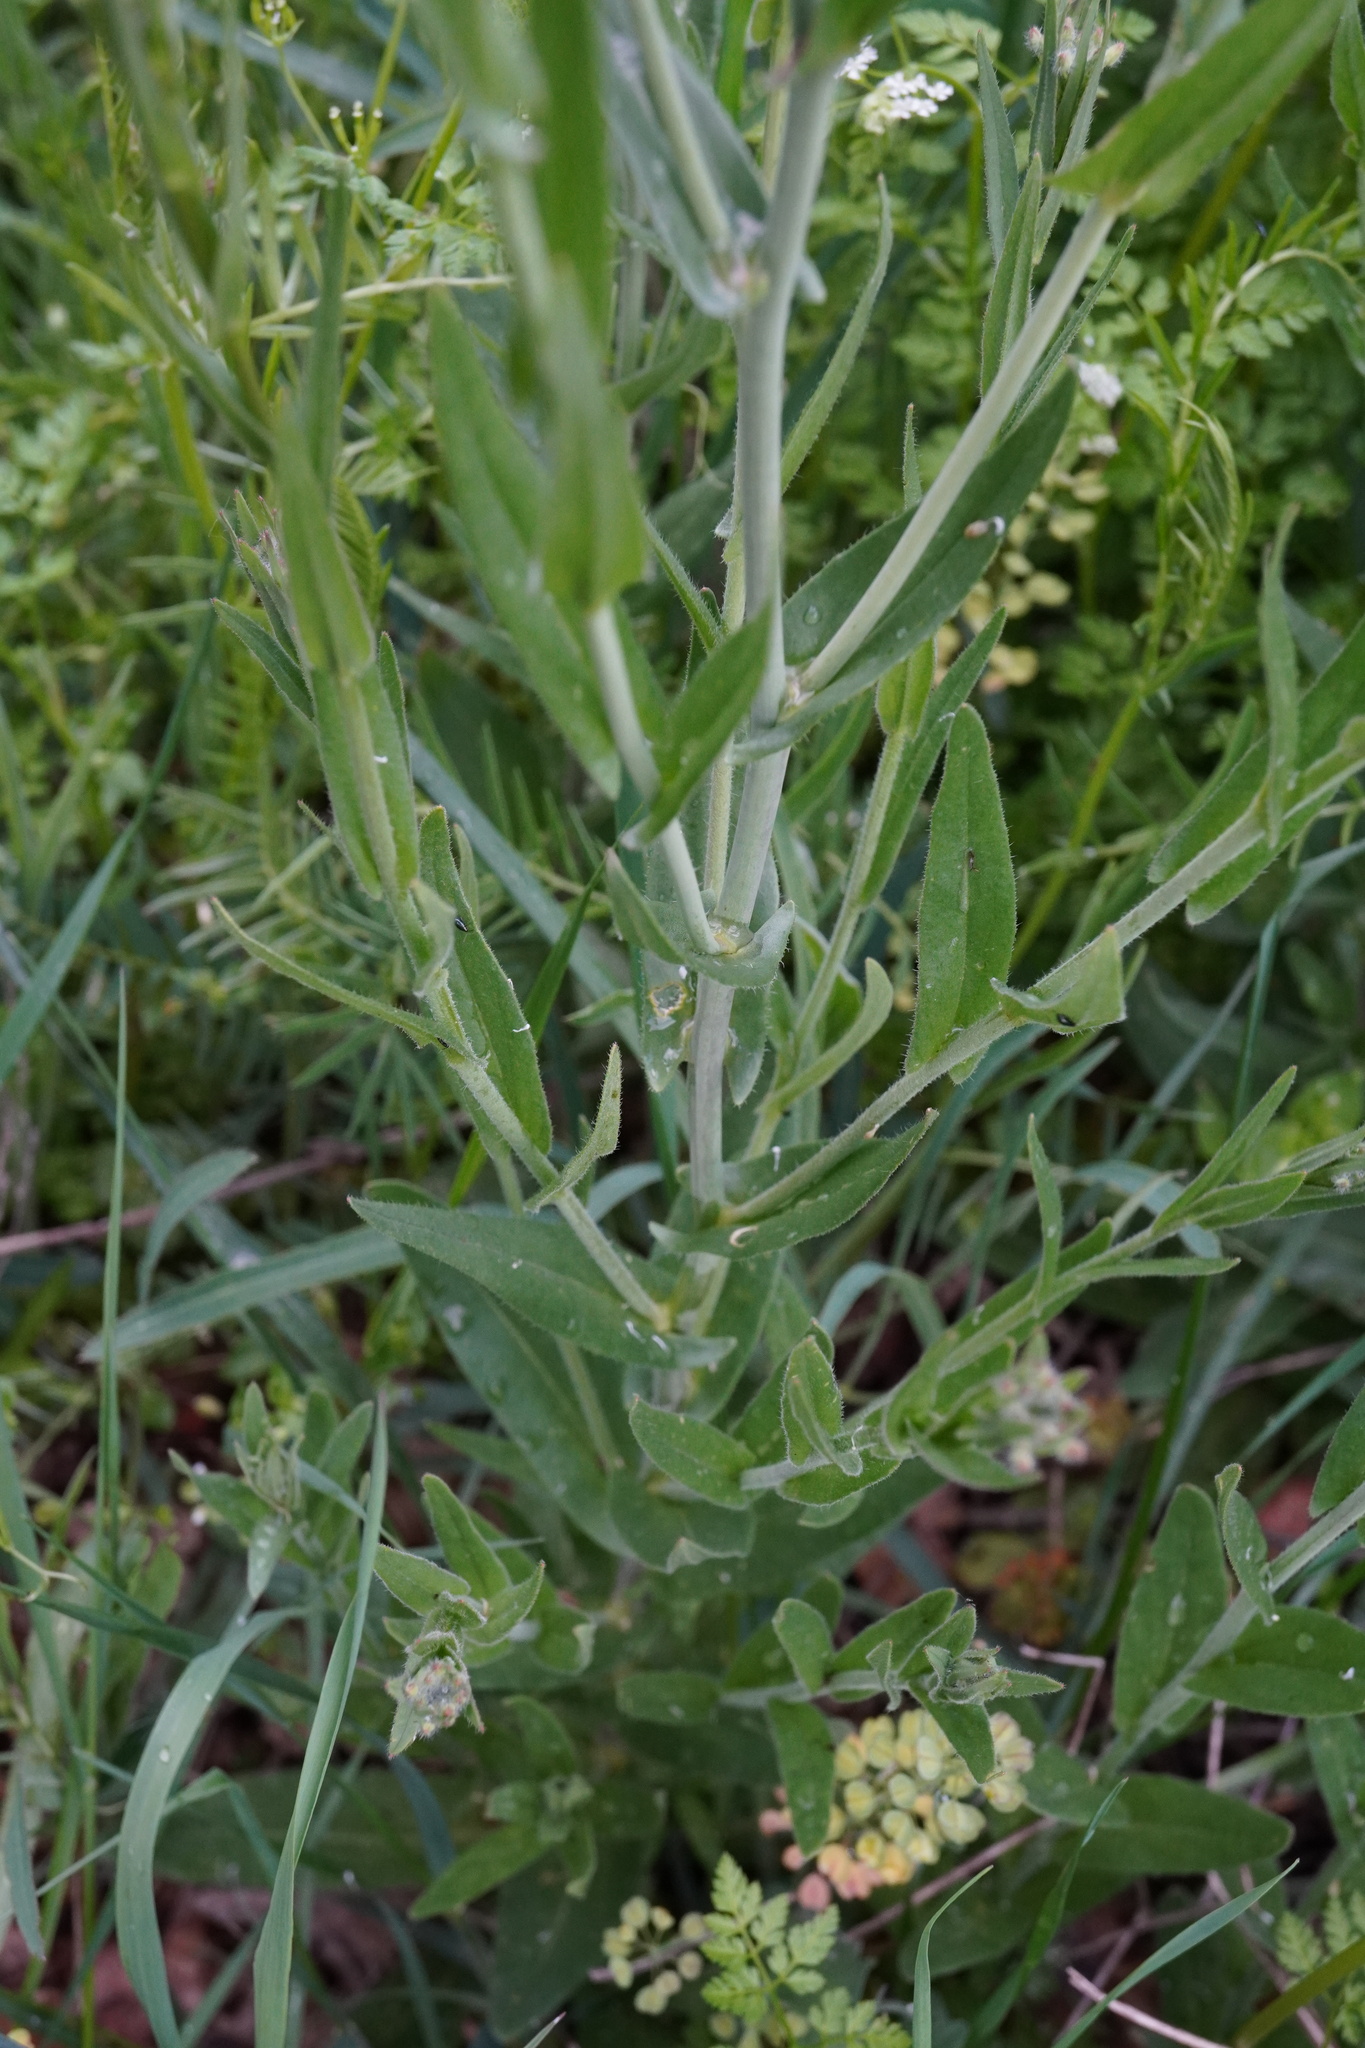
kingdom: Plantae
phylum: Tracheophyta
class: Magnoliopsida
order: Brassicales
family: Brassicaceae
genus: Camelina
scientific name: Camelina microcarpa
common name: Lesser gold-of-pleasure
